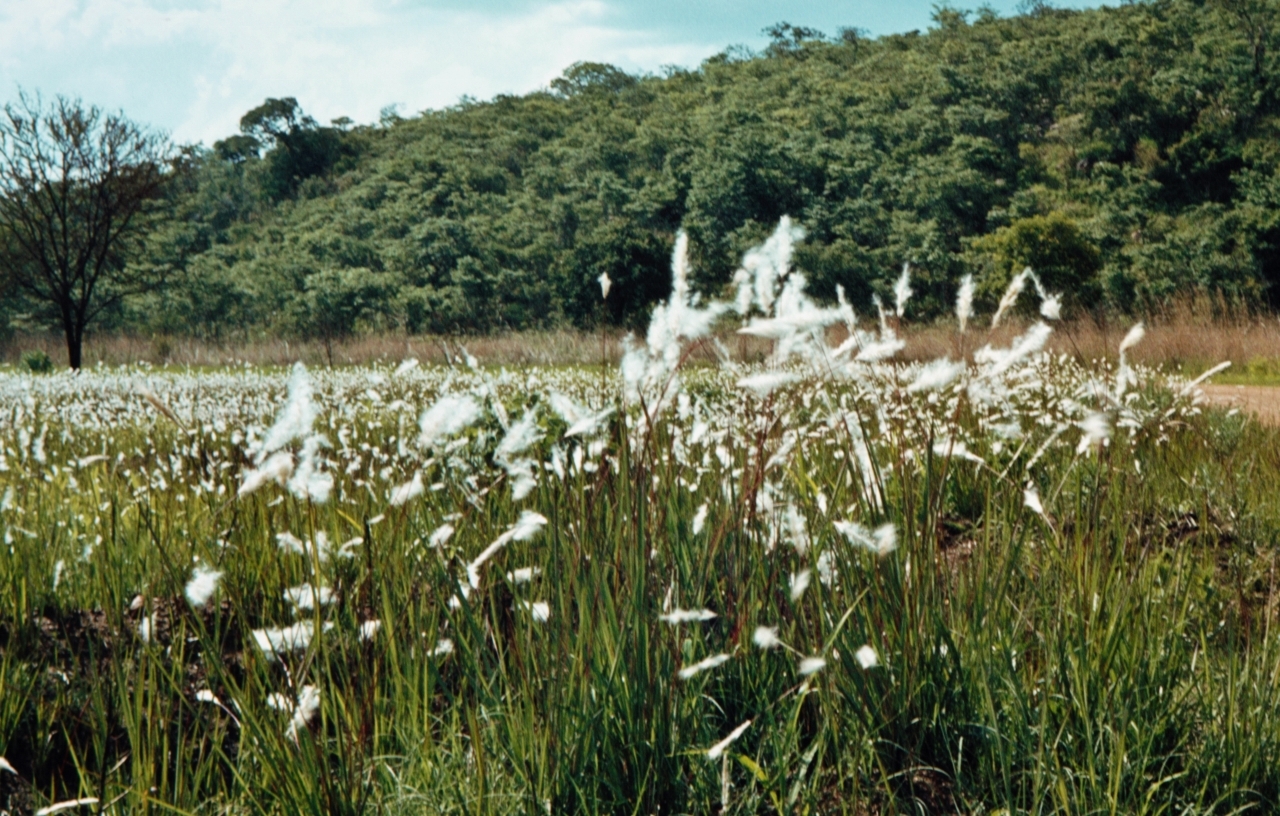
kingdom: Plantae
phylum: Tracheophyta
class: Liliopsida
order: Poales
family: Poaceae
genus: Imperata
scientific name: Imperata cylindrica
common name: Cogongrass
